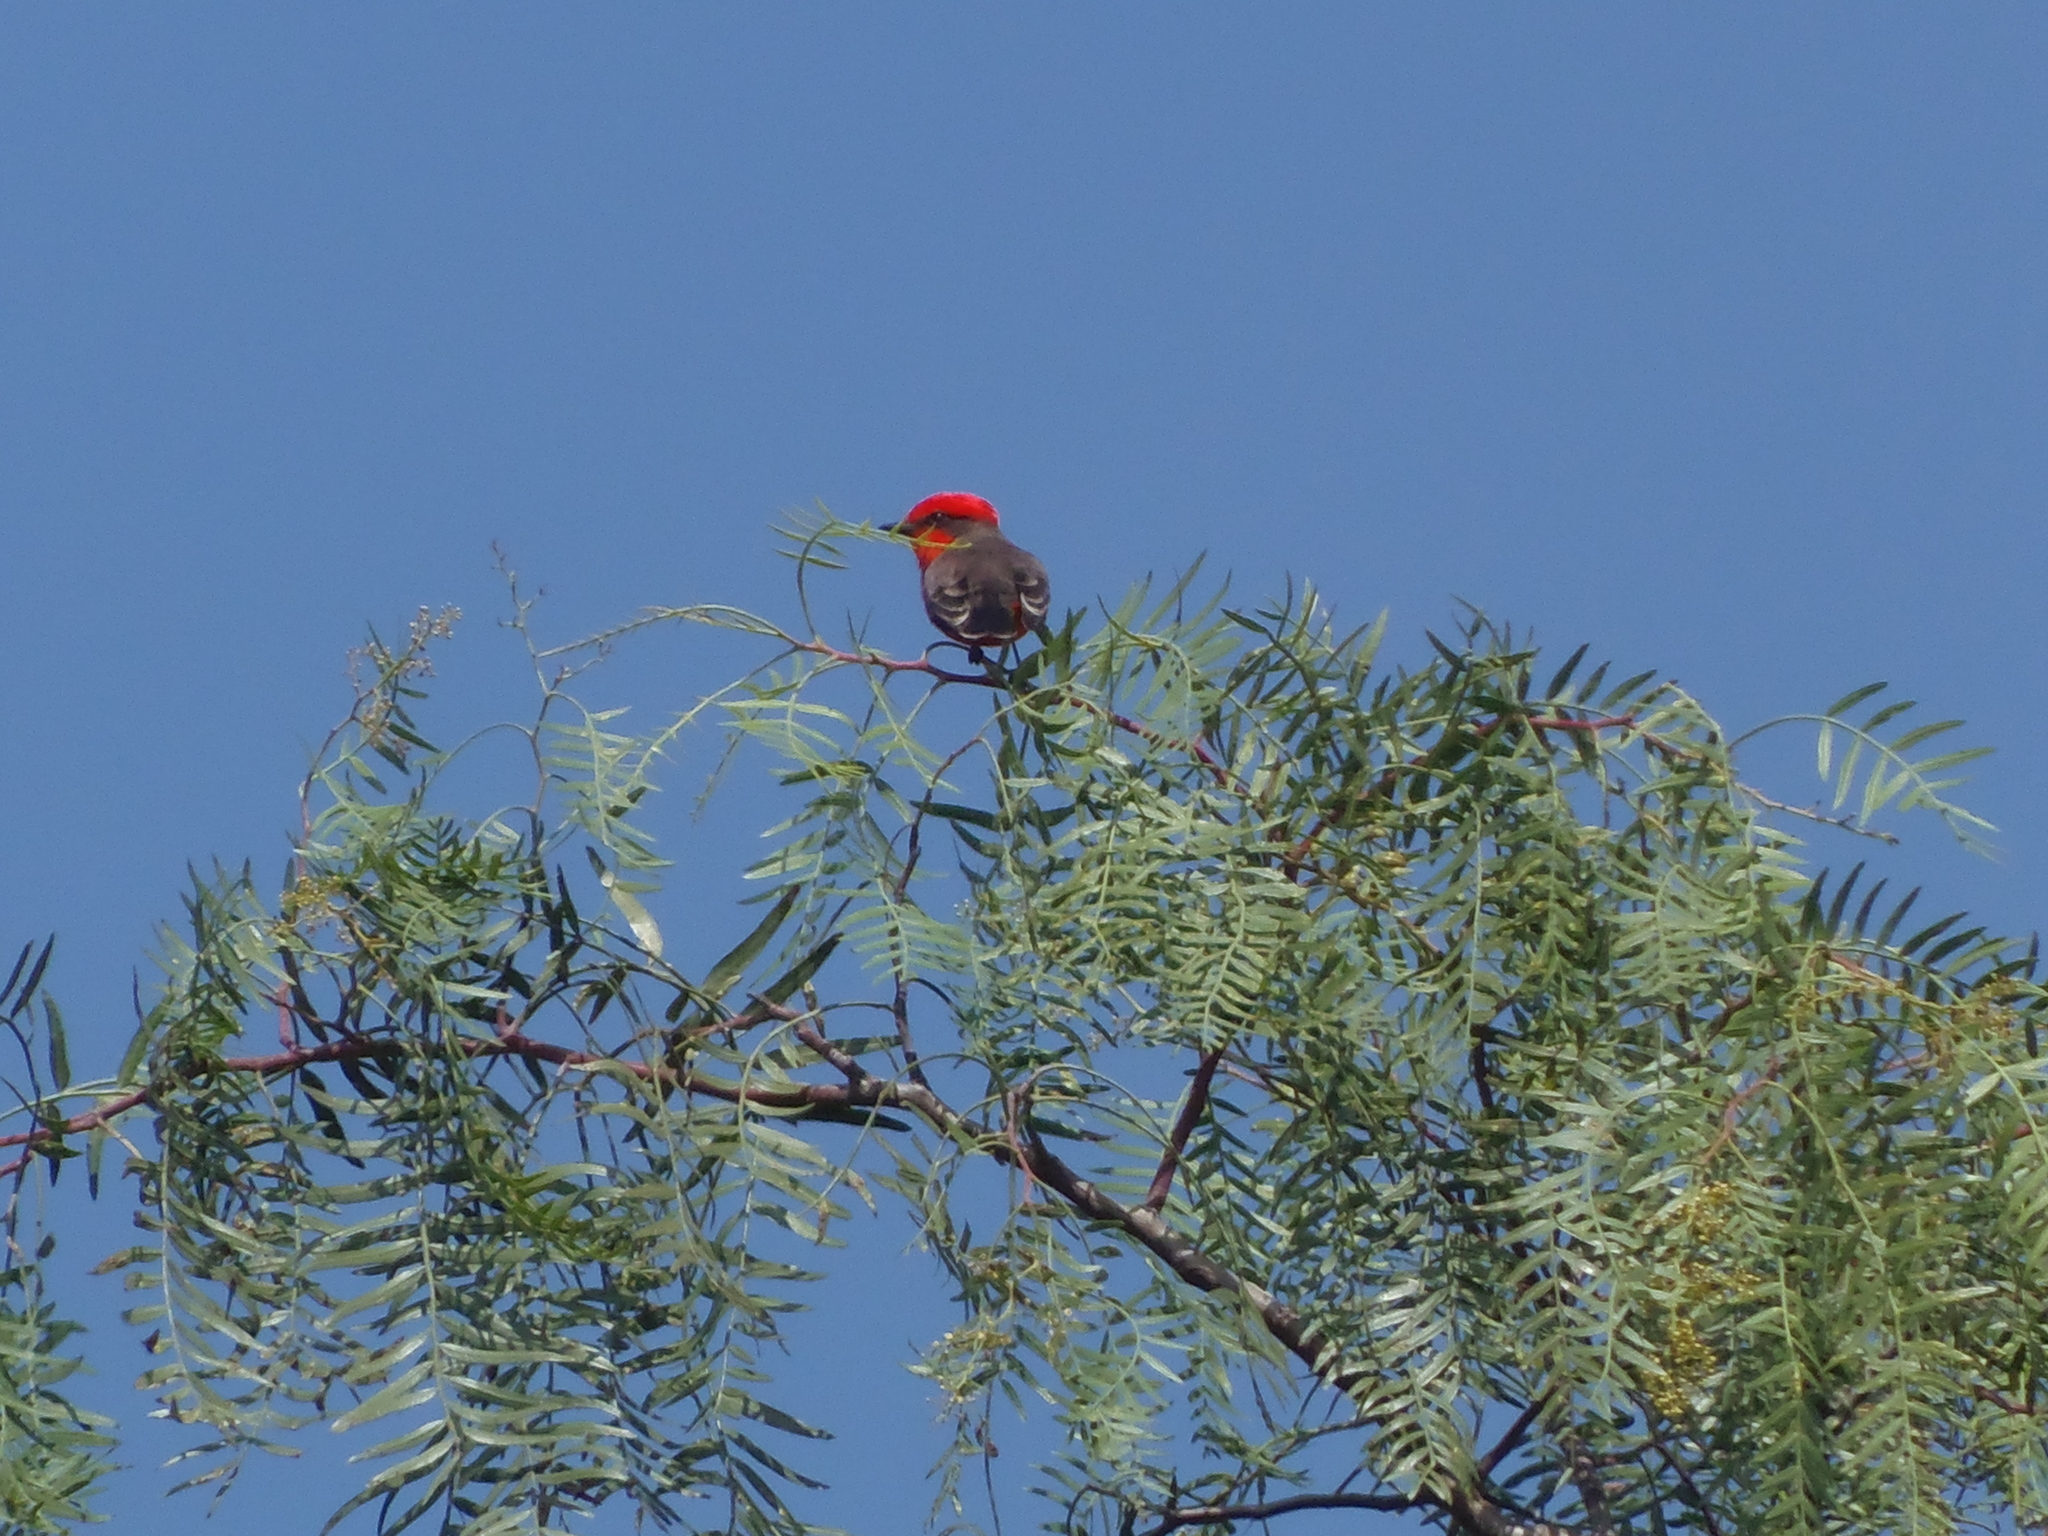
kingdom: Animalia
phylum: Chordata
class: Aves
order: Passeriformes
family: Tyrannidae
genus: Pyrocephalus
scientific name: Pyrocephalus rubinus
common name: Vermilion flycatcher
